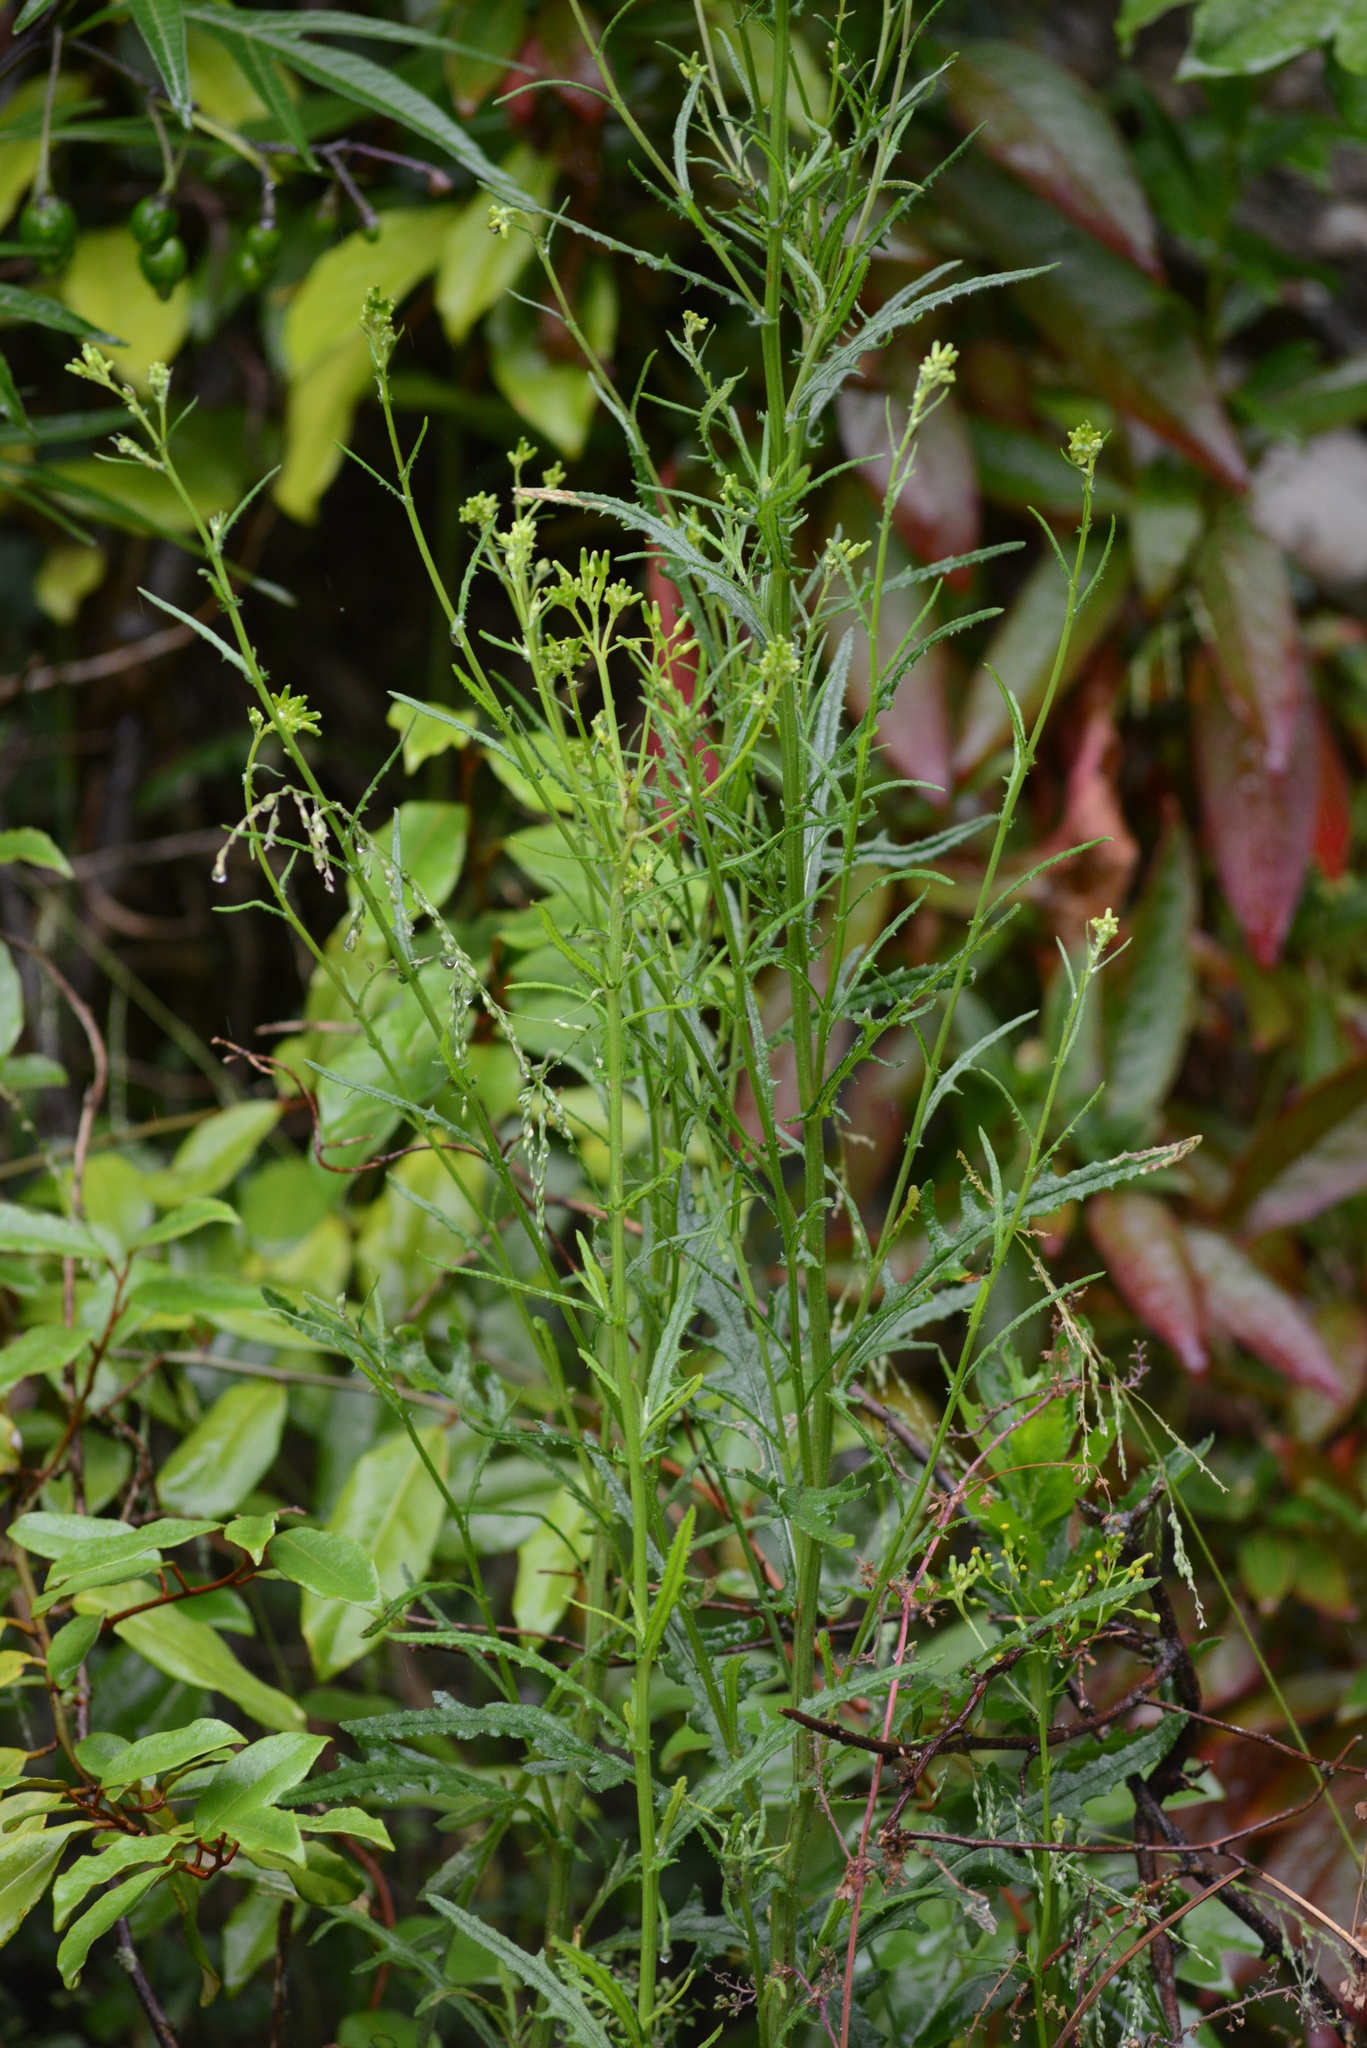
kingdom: Plantae
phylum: Tracheophyta
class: Magnoliopsida
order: Asterales
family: Asteraceae
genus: Senecio
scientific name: Senecio hispidulus
